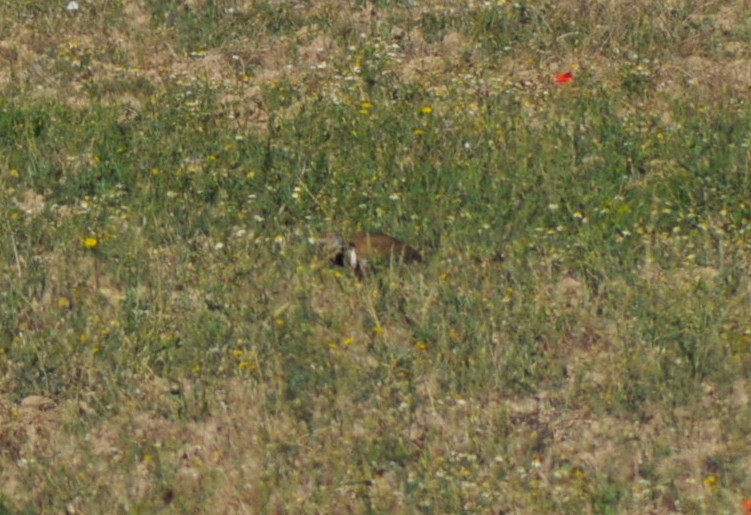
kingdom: Animalia
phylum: Chordata
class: Aves
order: Otidiformes
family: Otididae
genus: Tetrax
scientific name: Tetrax tetrax
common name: Little bustard
